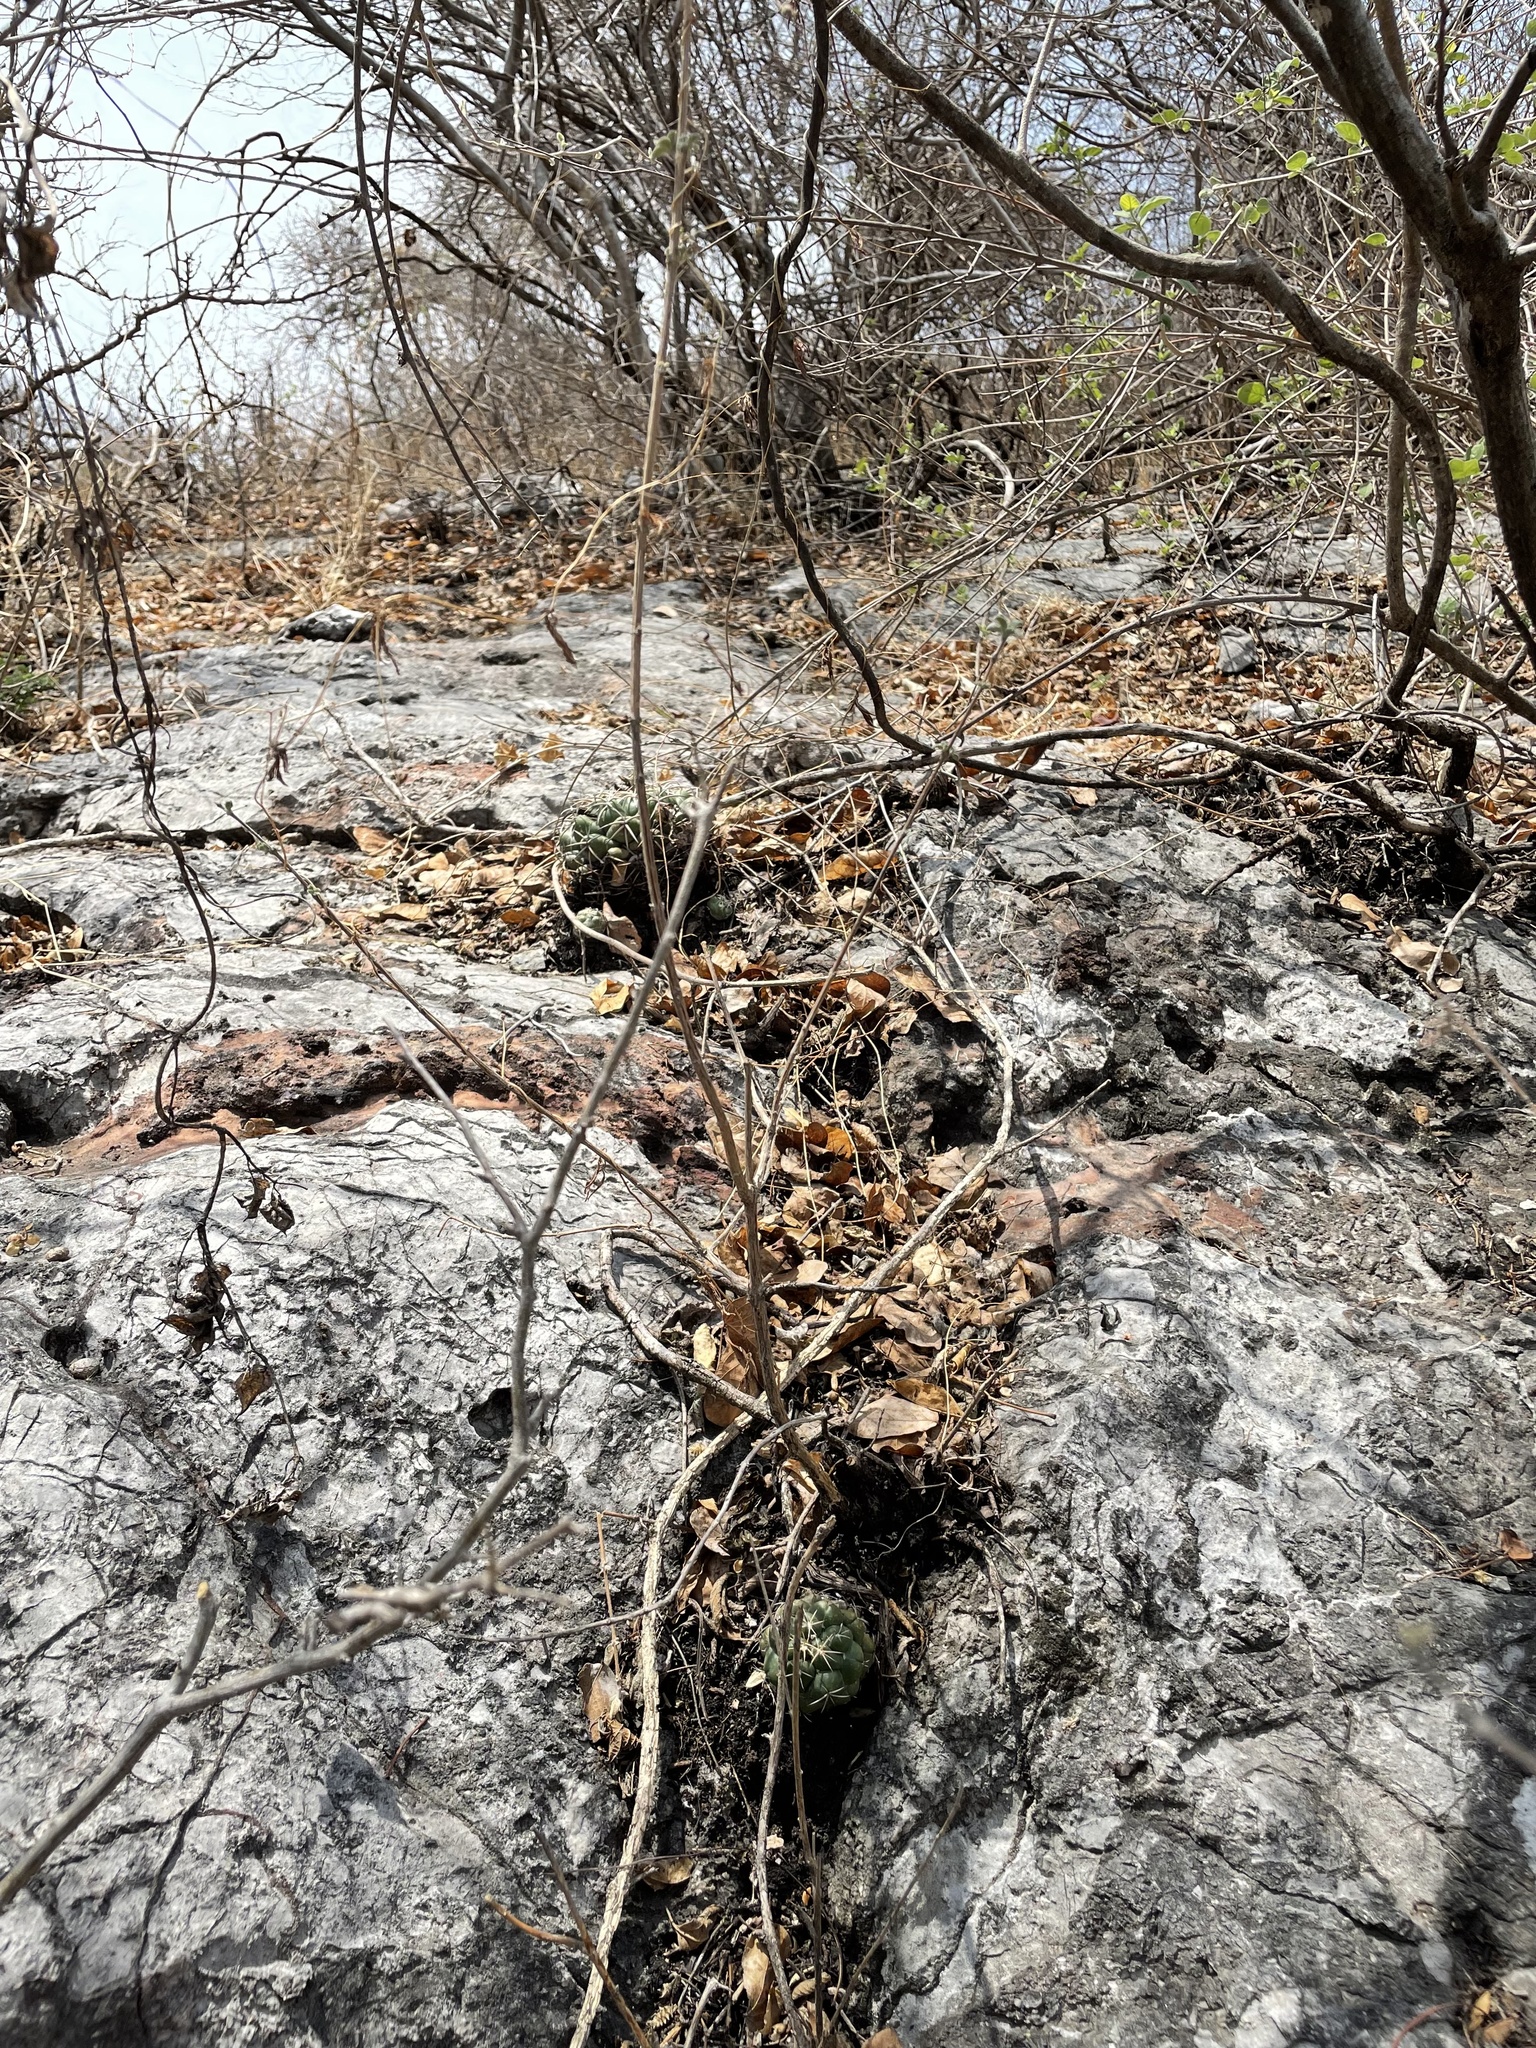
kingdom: Plantae
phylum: Tracheophyta
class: Magnoliopsida
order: Caryophyllales
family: Cactaceae
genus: Coryphantha
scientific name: Coryphantha elephantidens
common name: Elephant's tooth
